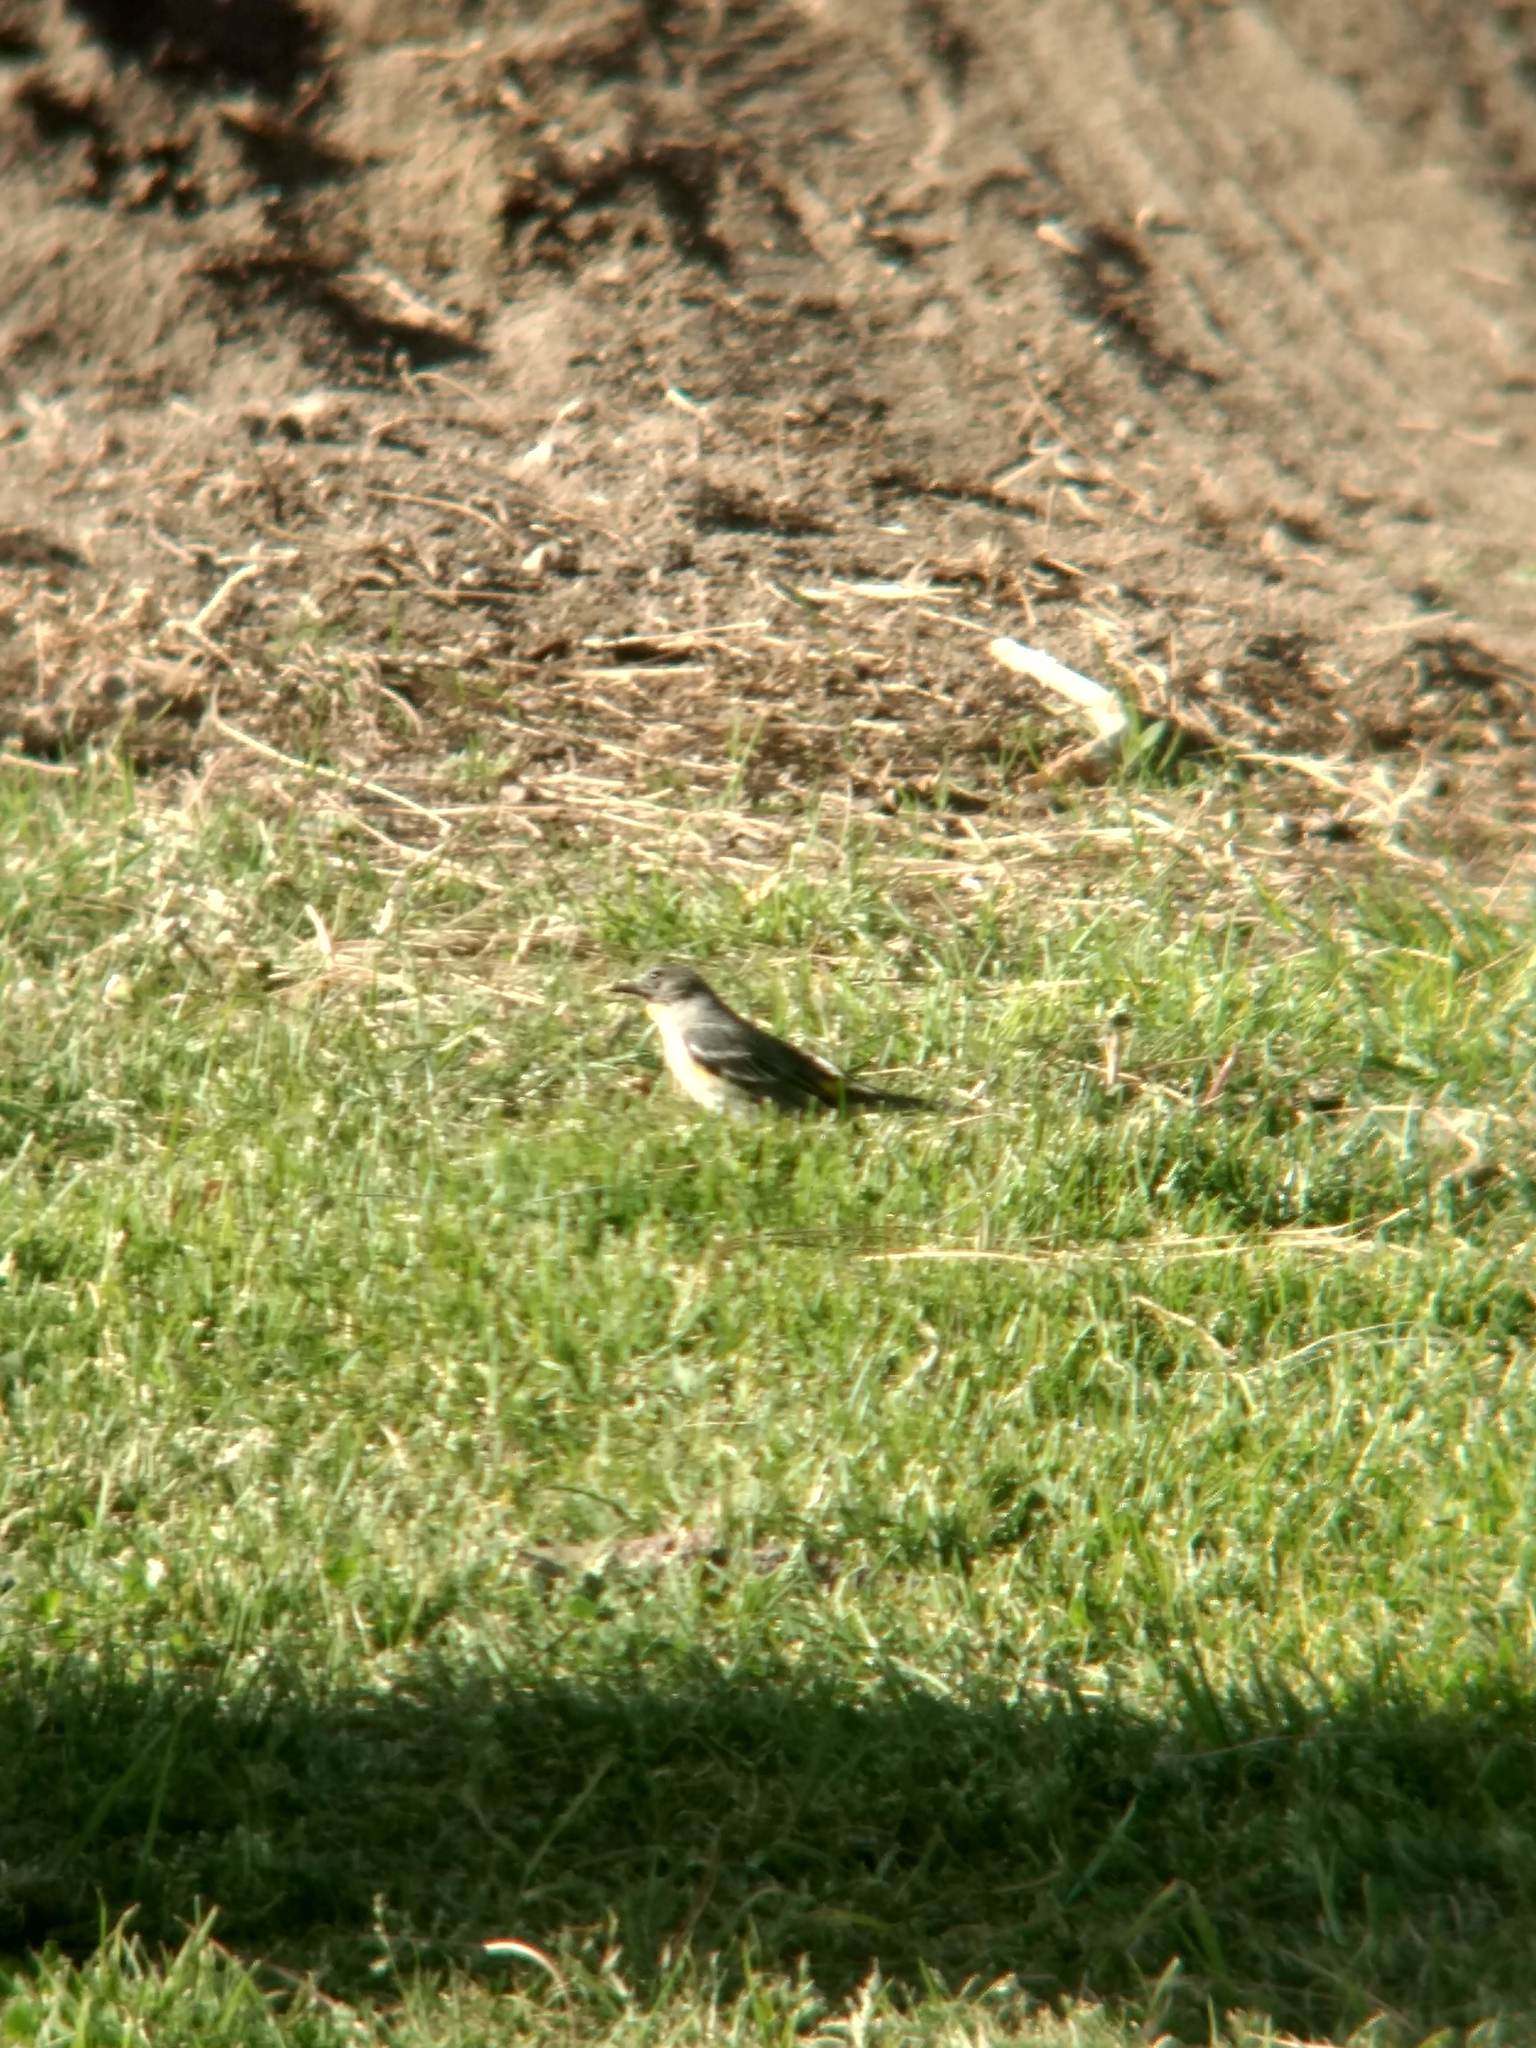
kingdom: Animalia
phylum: Chordata
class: Aves
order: Passeriformes
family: Parulidae
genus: Setophaga
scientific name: Setophaga coronata
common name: Myrtle warbler
